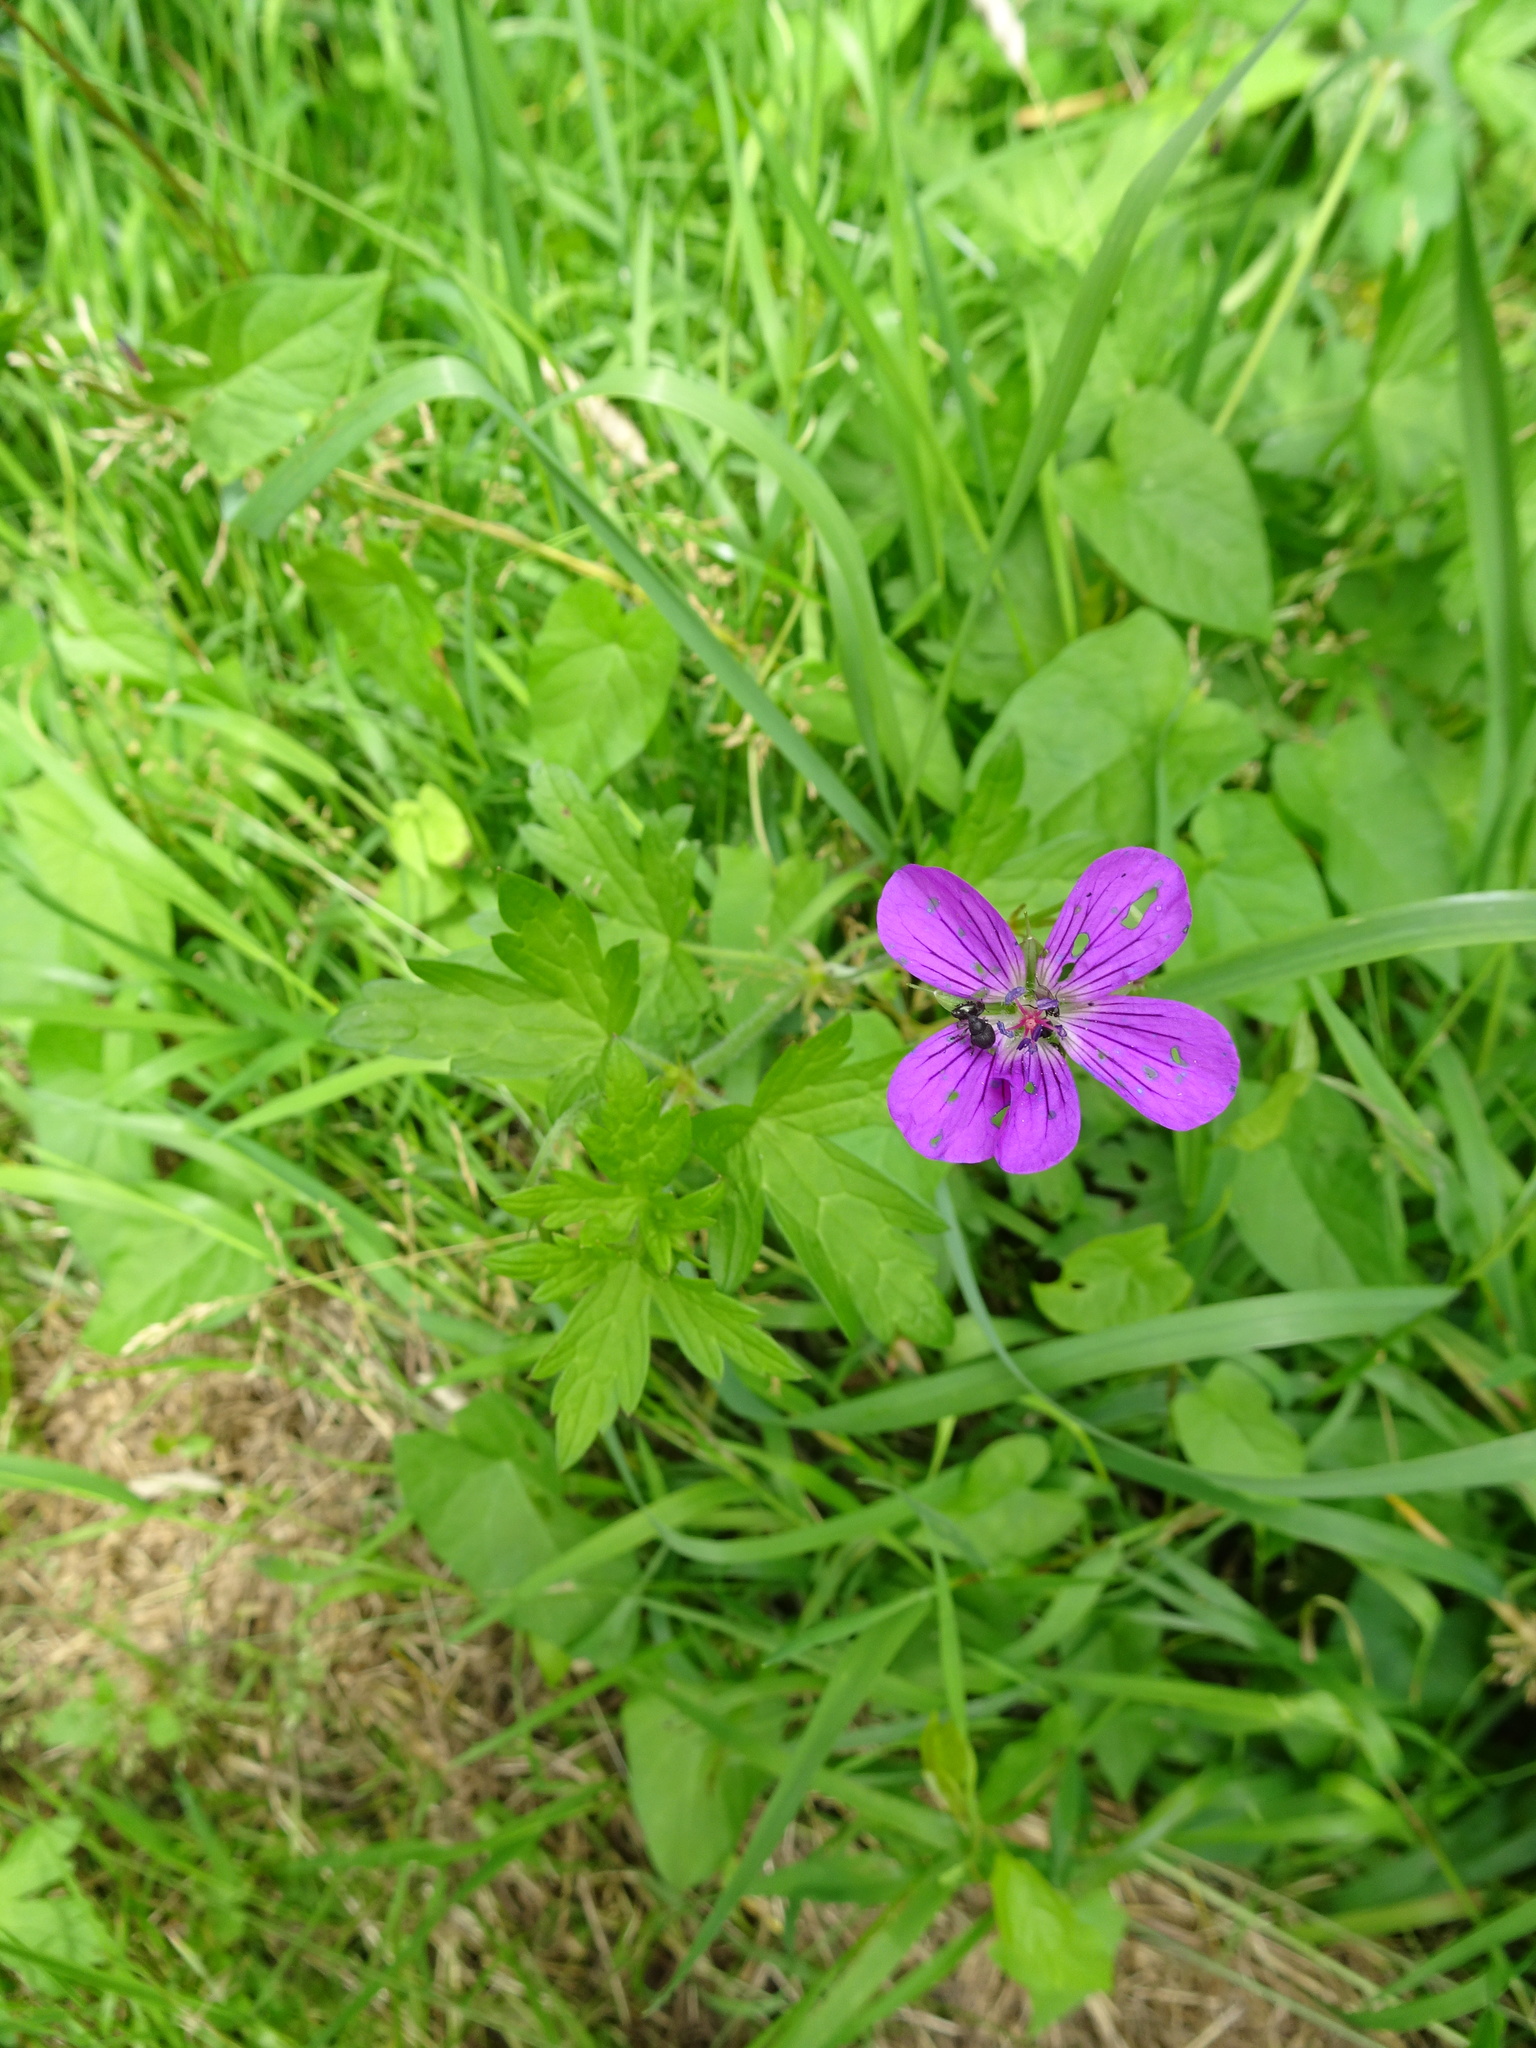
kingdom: Plantae
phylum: Tracheophyta
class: Magnoliopsida
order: Geraniales
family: Geraniaceae
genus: Geranium
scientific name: Geranium palustre
